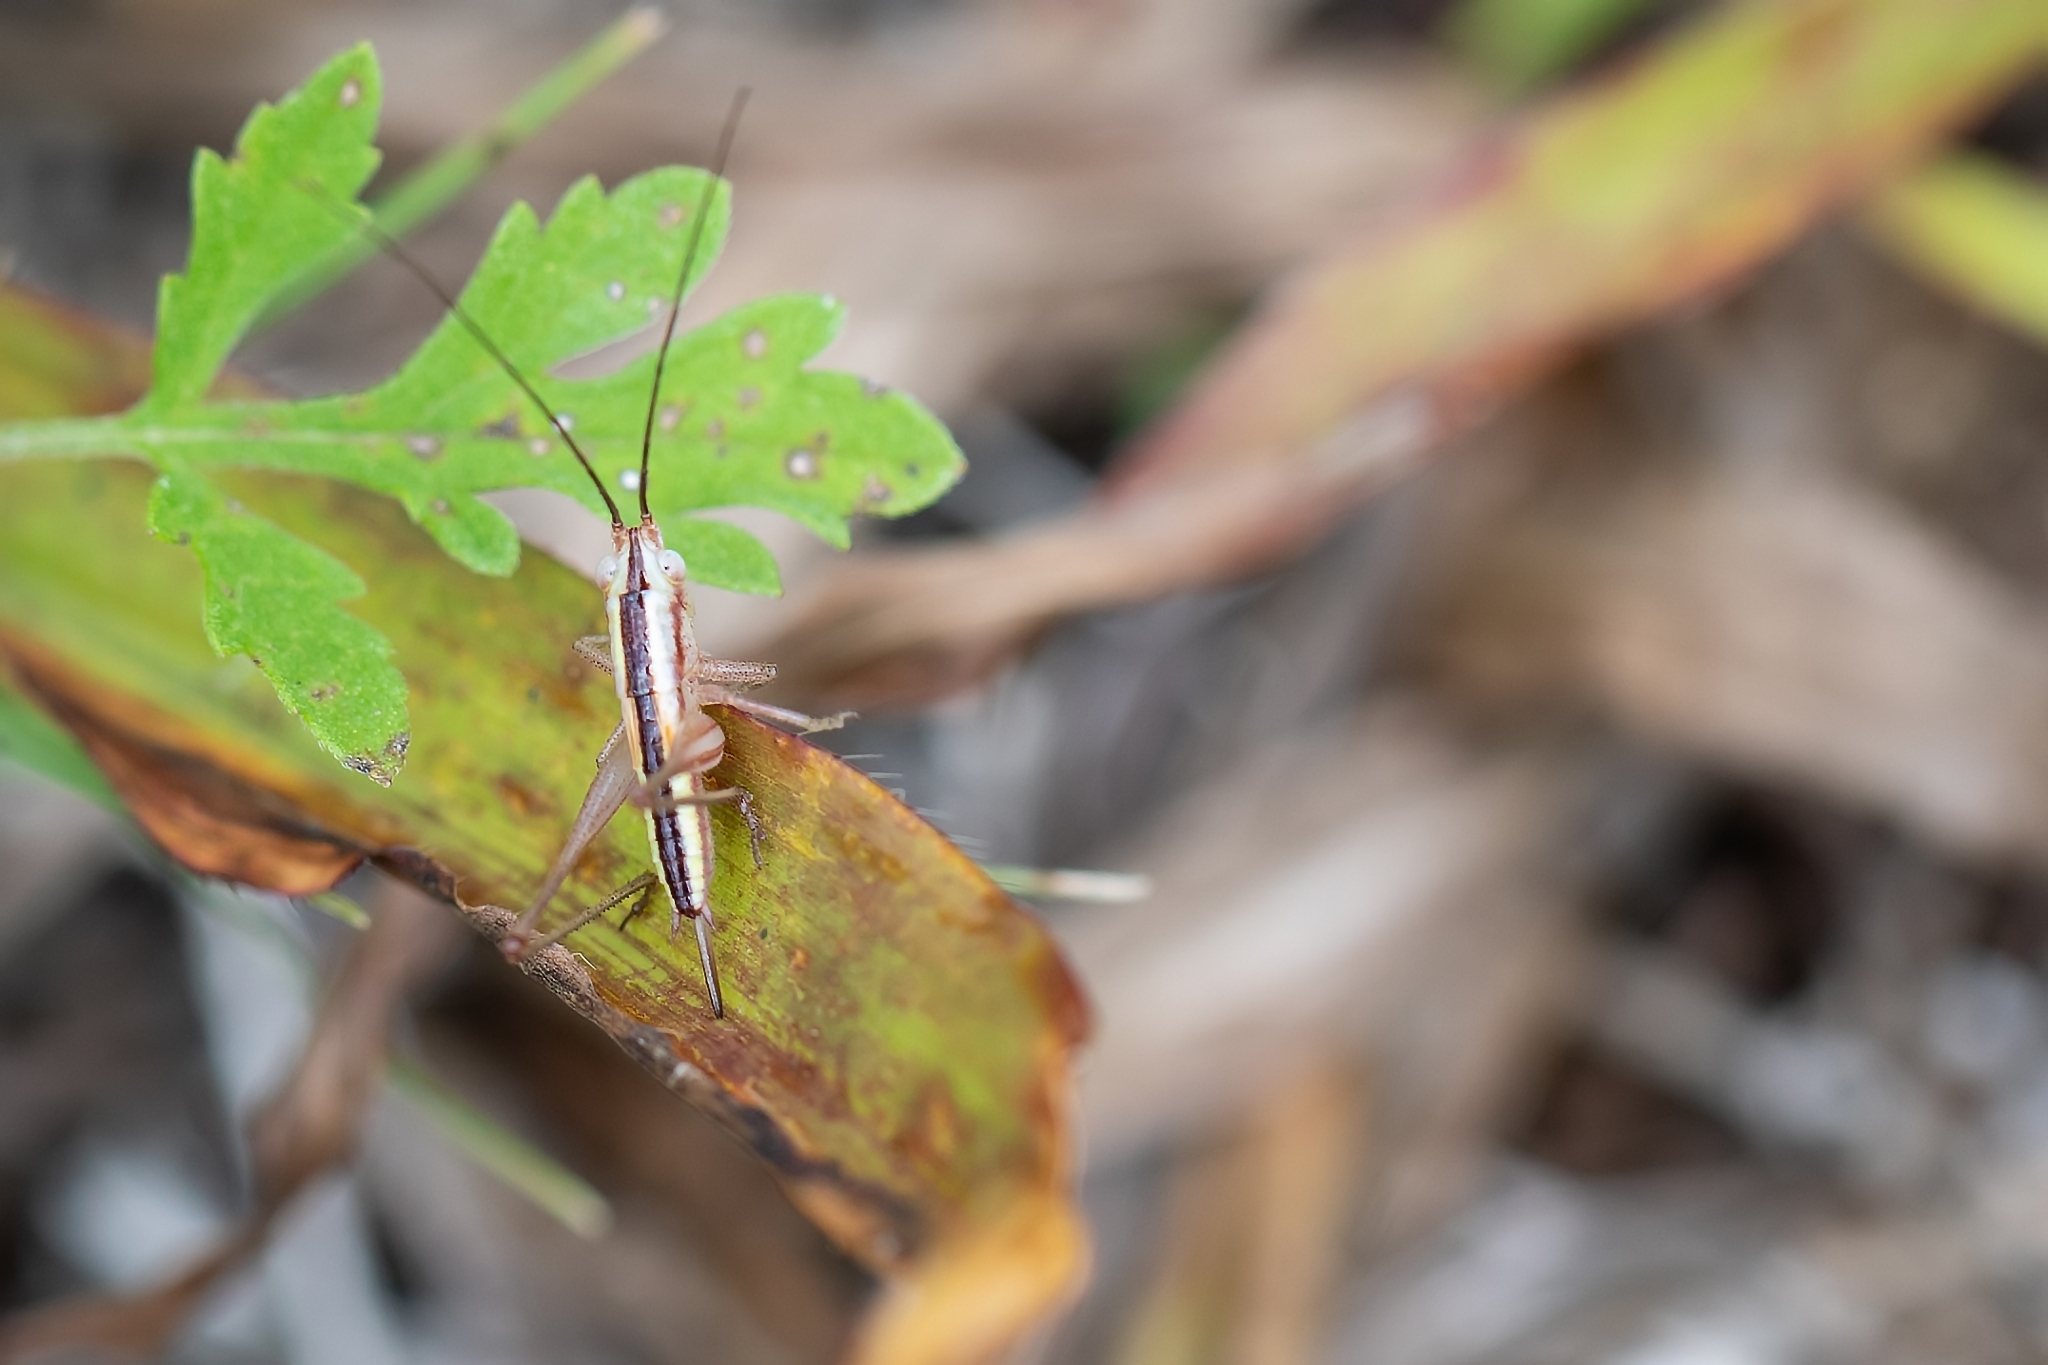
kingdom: Animalia
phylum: Arthropoda
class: Insecta
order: Orthoptera
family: Tettigoniidae
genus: Conocephalus
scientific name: Conocephalus gracillimus
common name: Graceful meadow katydid
